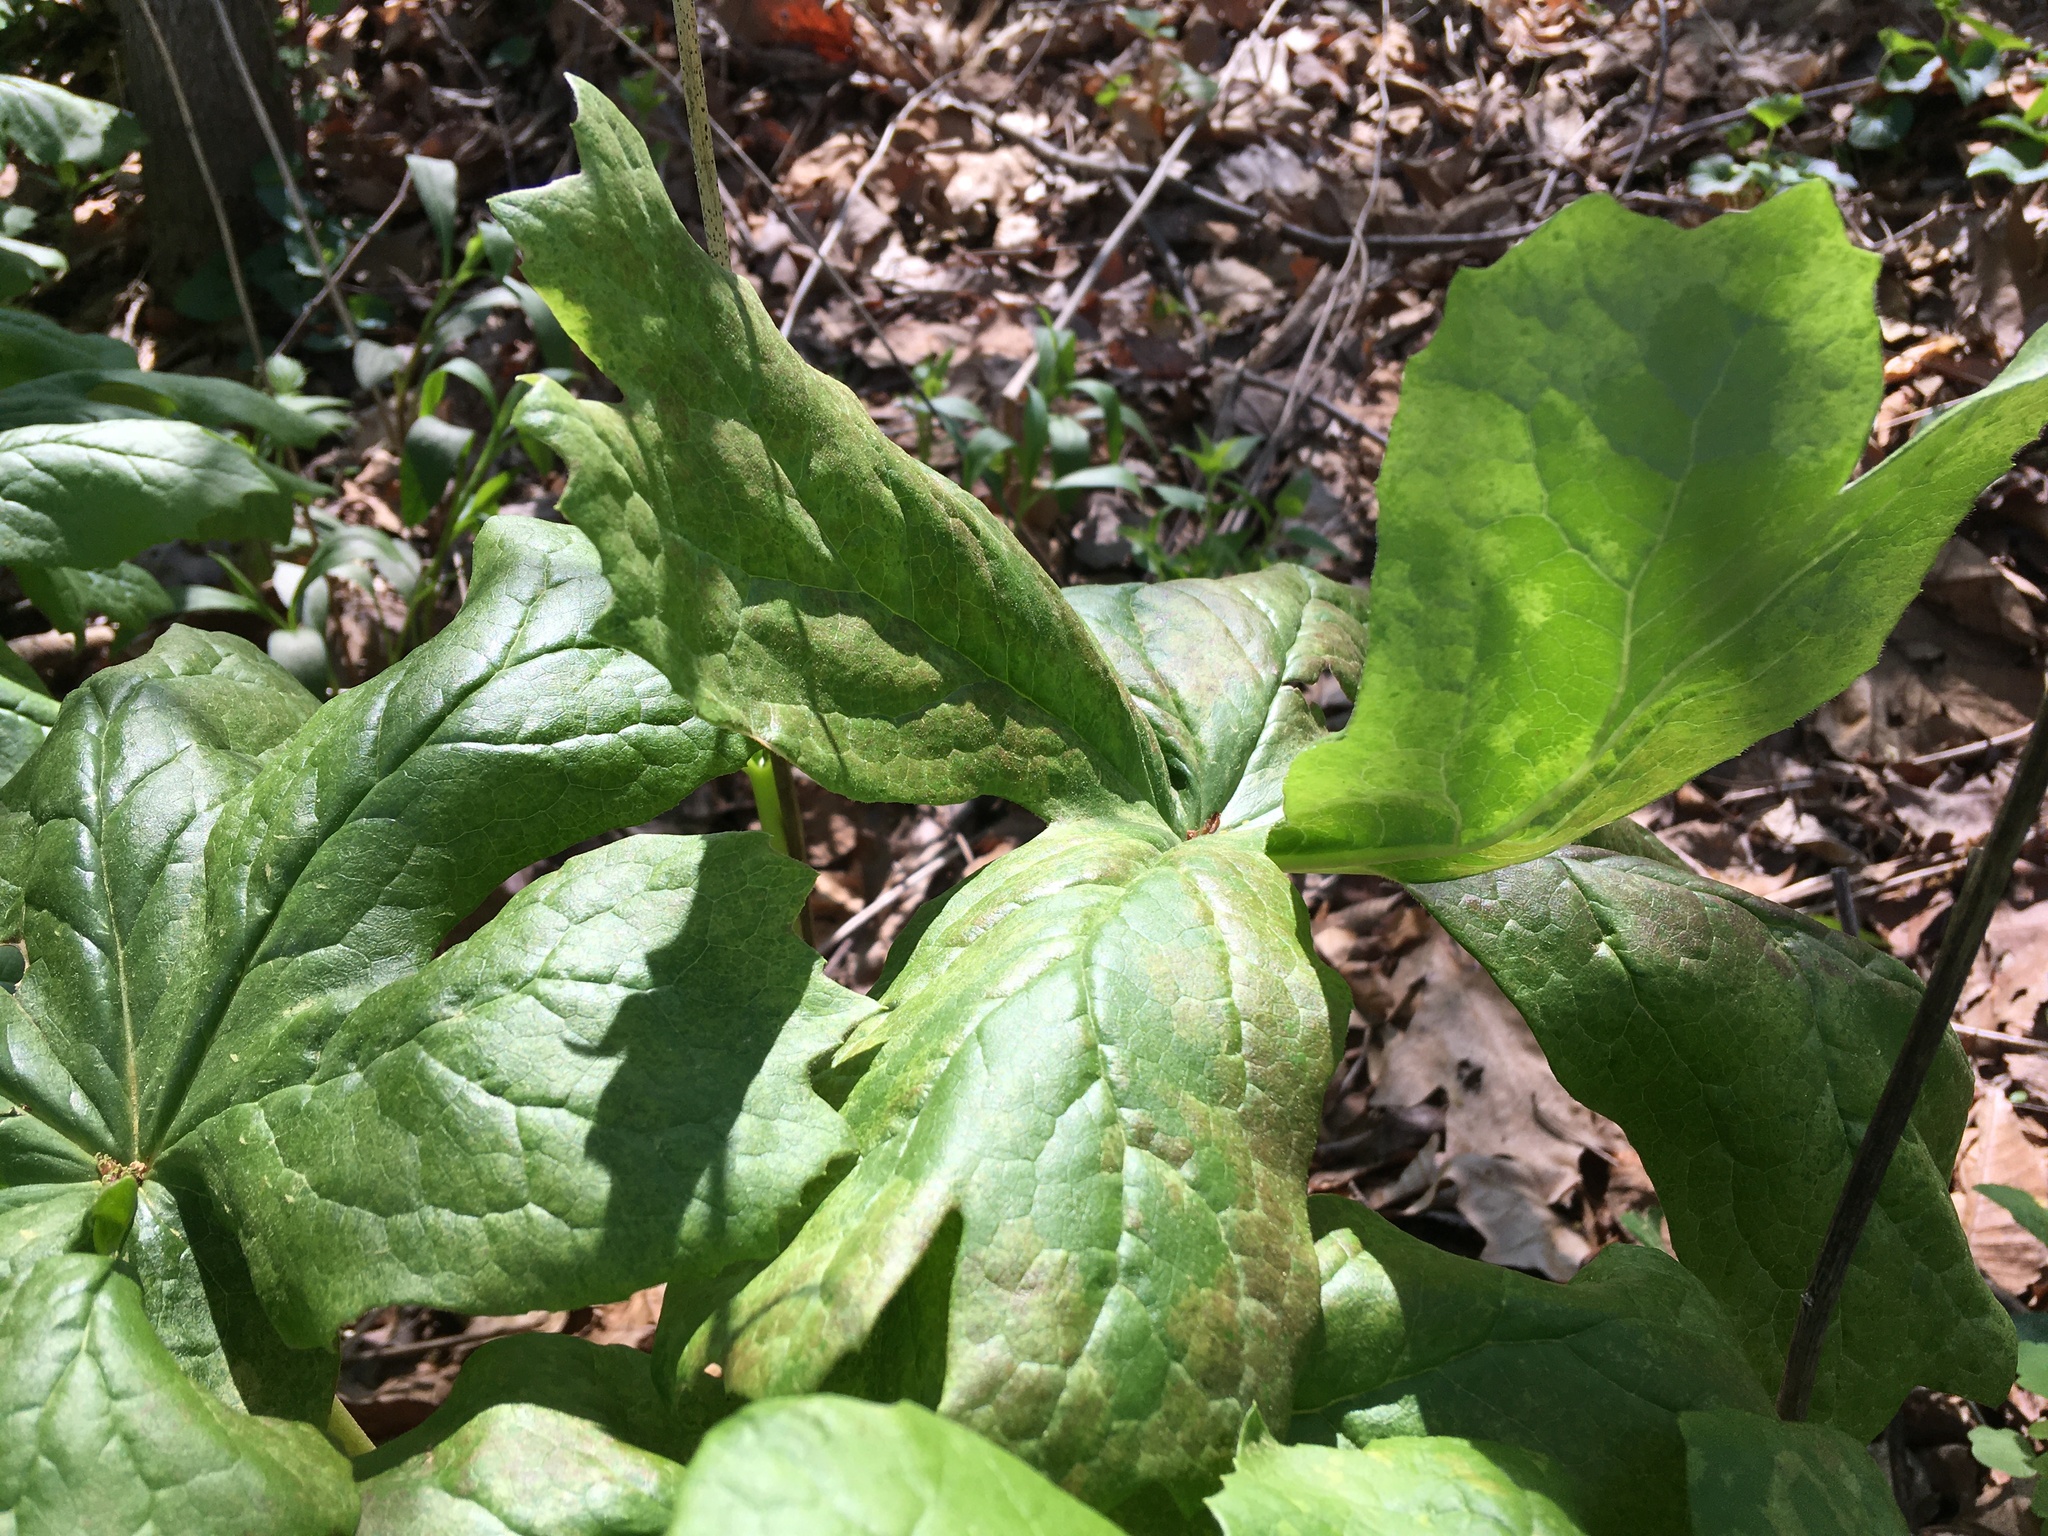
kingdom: Plantae
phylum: Tracheophyta
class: Magnoliopsida
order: Ranunculales
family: Berberidaceae
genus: Podophyllum
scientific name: Podophyllum peltatum
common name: Wild mandrake
